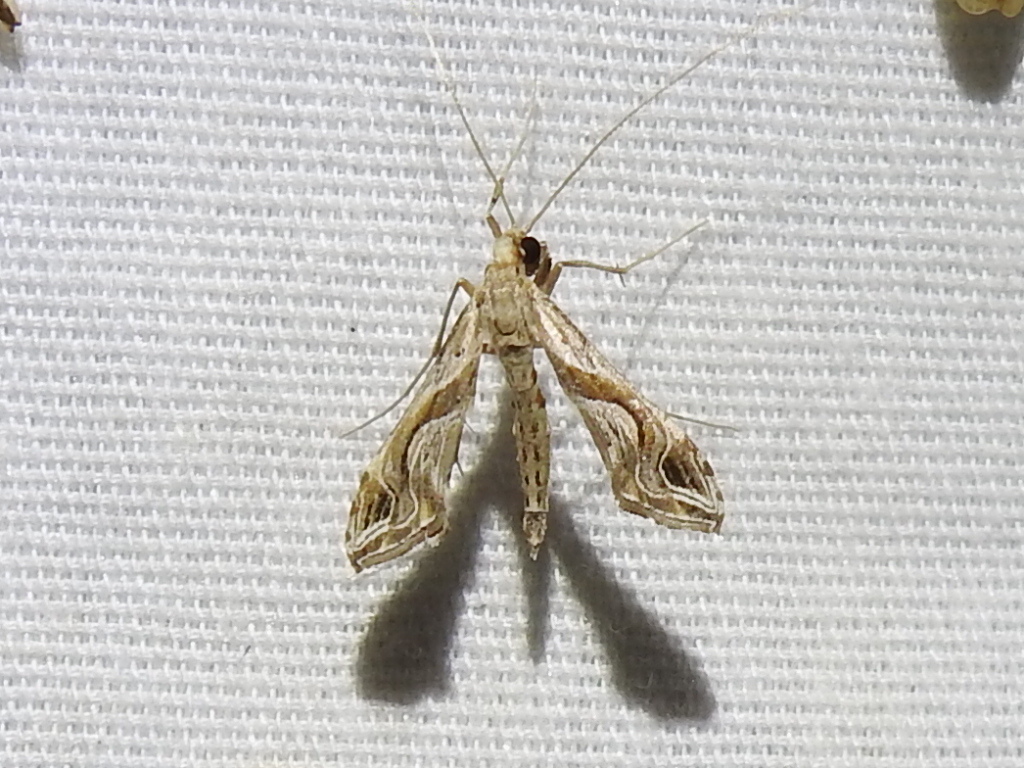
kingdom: Animalia
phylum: Arthropoda
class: Insecta
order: Lepidoptera
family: Crambidae
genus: Lineodes
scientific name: Lineodes integra
